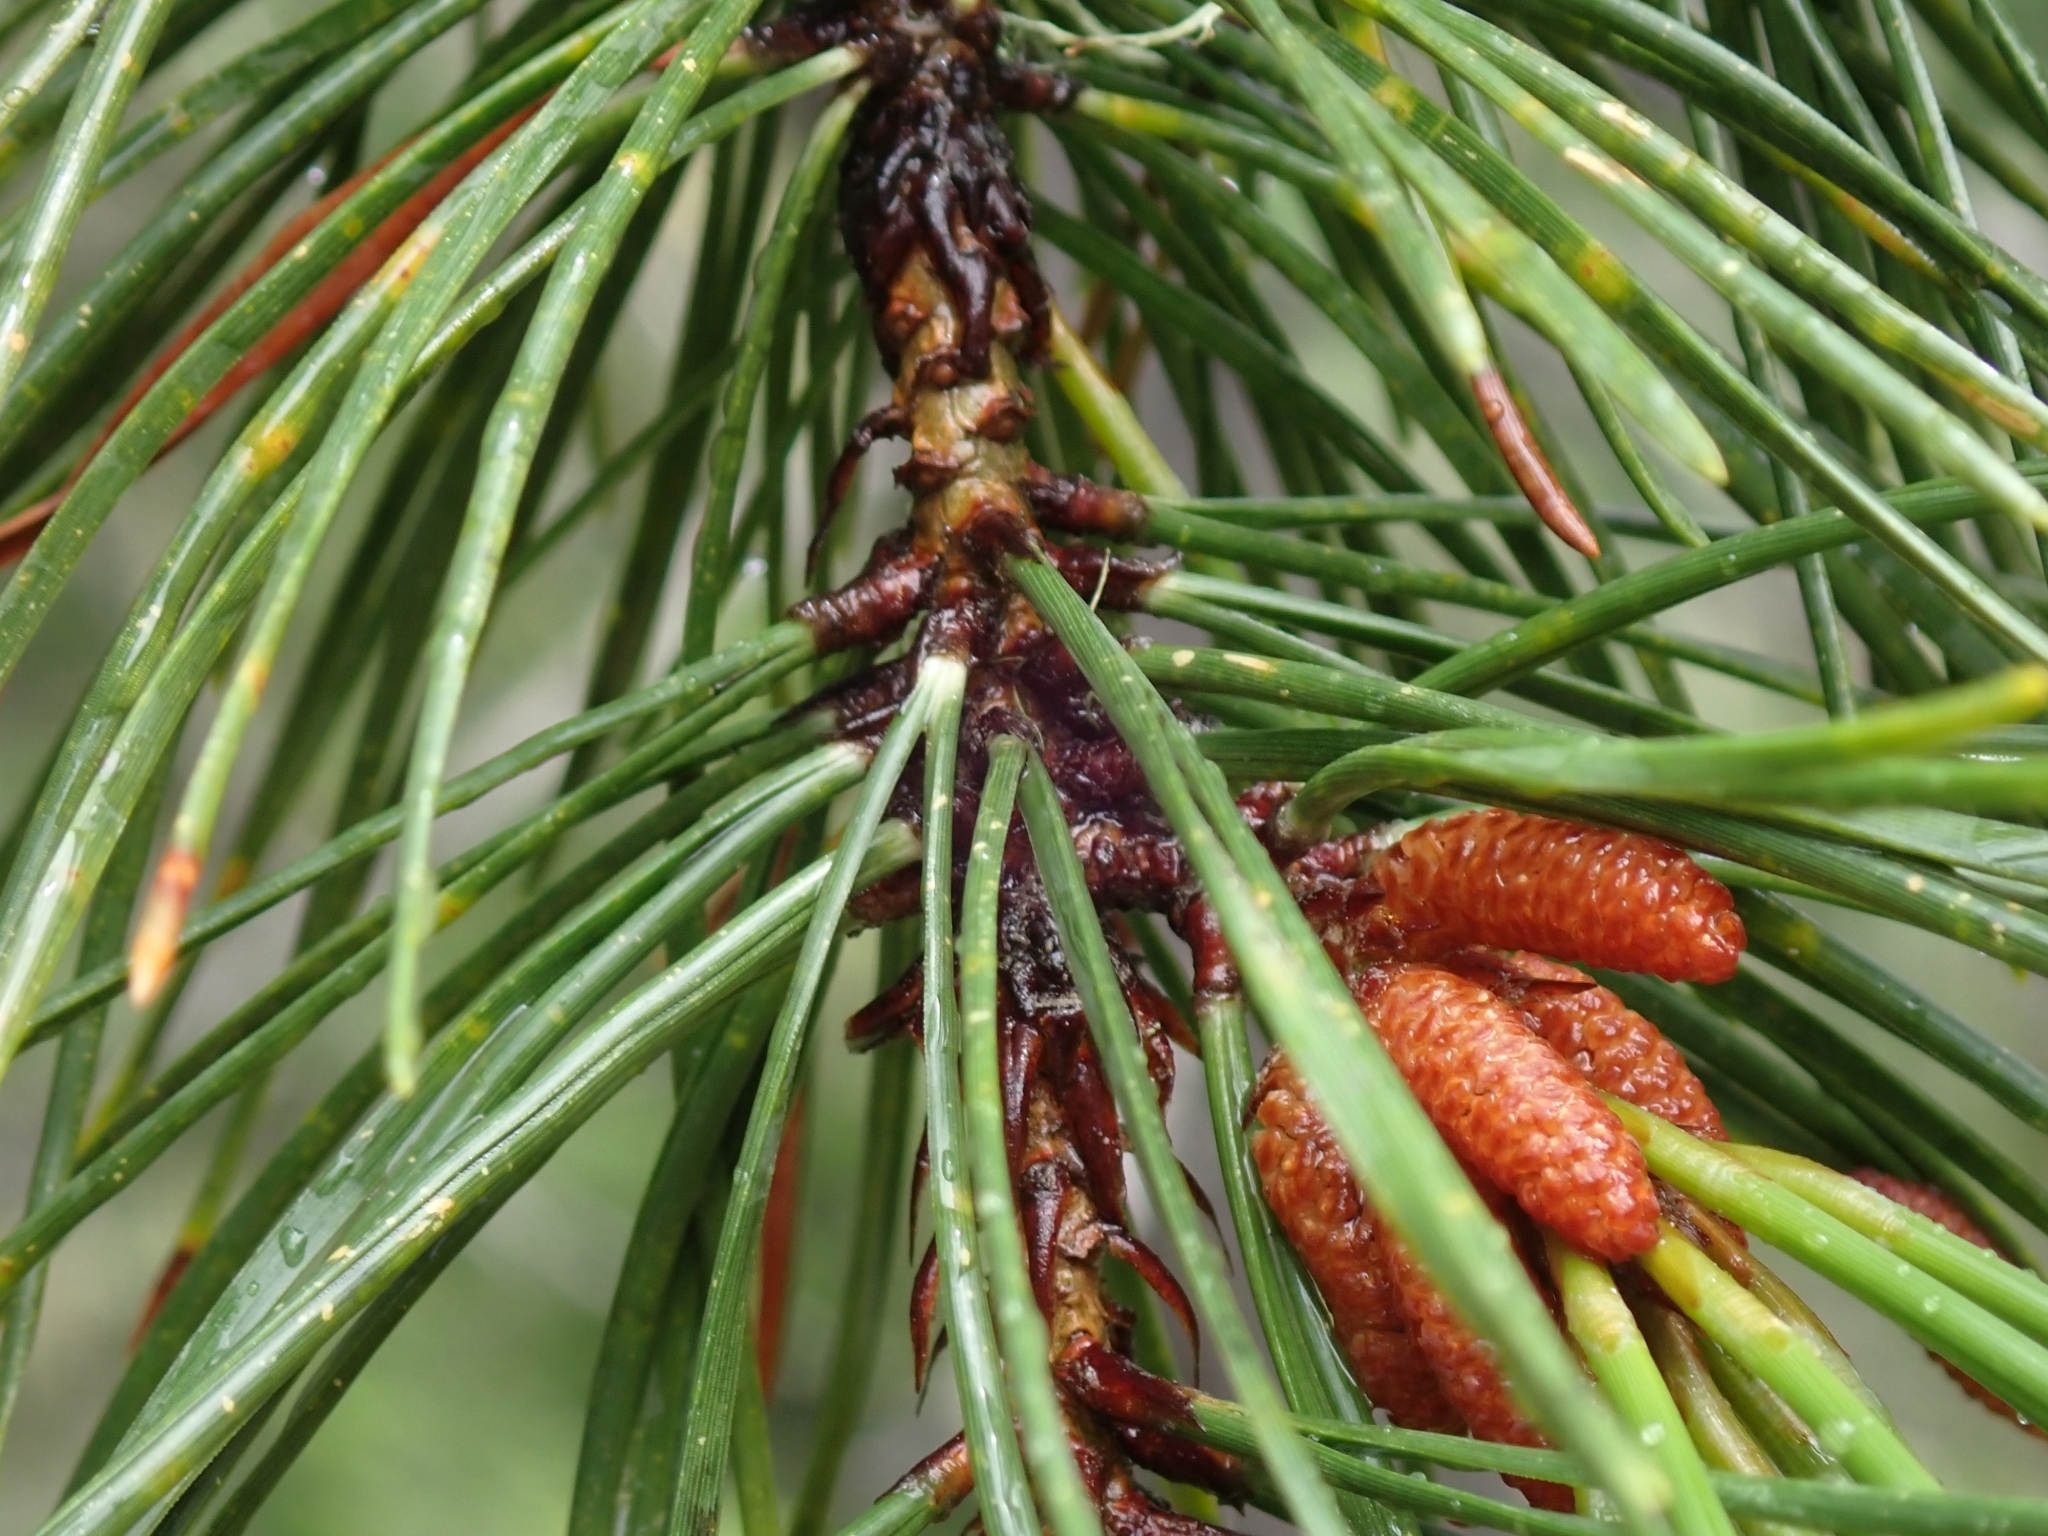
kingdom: Plantae
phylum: Tracheophyta
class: Pinopsida
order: Pinales
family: Pinaceae
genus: Pinus
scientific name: Pinus contorta
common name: Lodgepole pine
